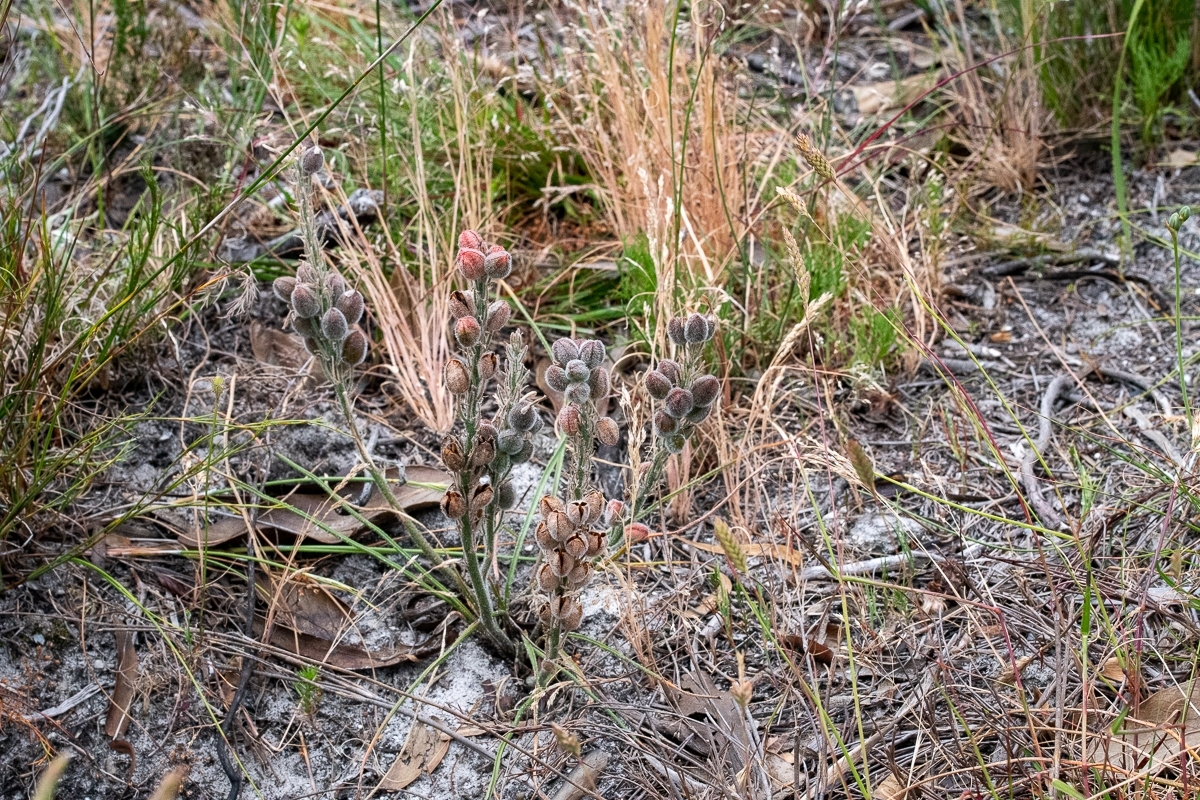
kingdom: Plantae
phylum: Tracheophyta
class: Liliopsida
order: Asparagales
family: Asphodelaceae
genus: Trachyandra
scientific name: Trachyandra hirsutiflora
